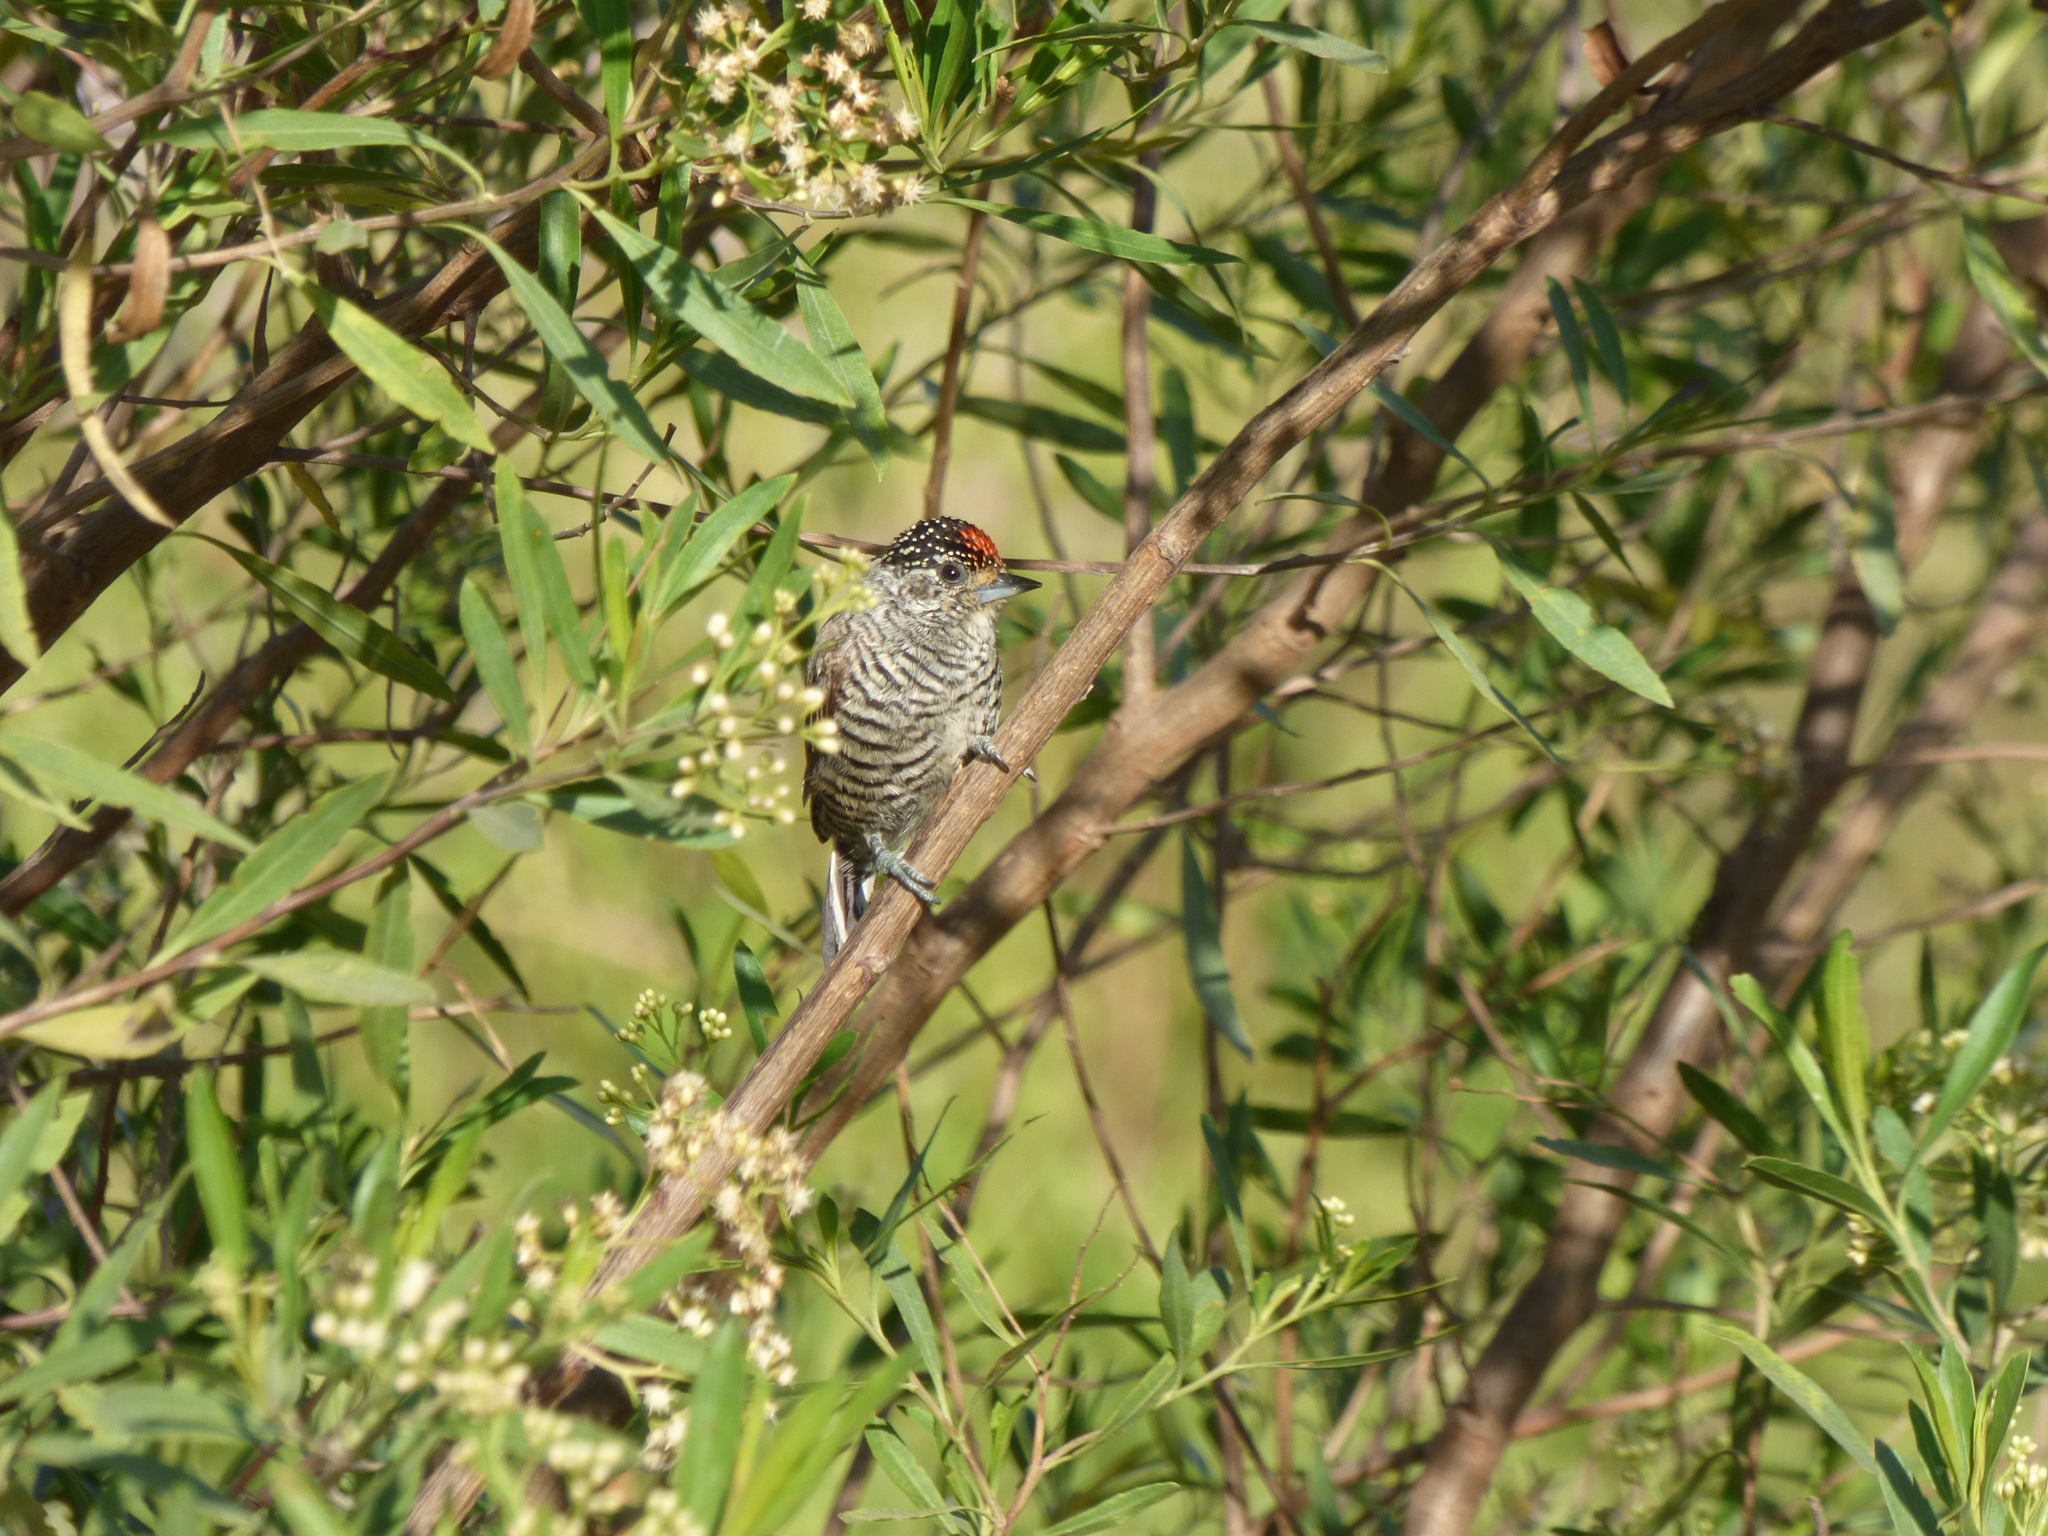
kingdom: Animalia
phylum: Chordata
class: Aves
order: Piciformes
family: Picidae
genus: Picumnus
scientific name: Picumnus cirratus
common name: White-barred piculet
